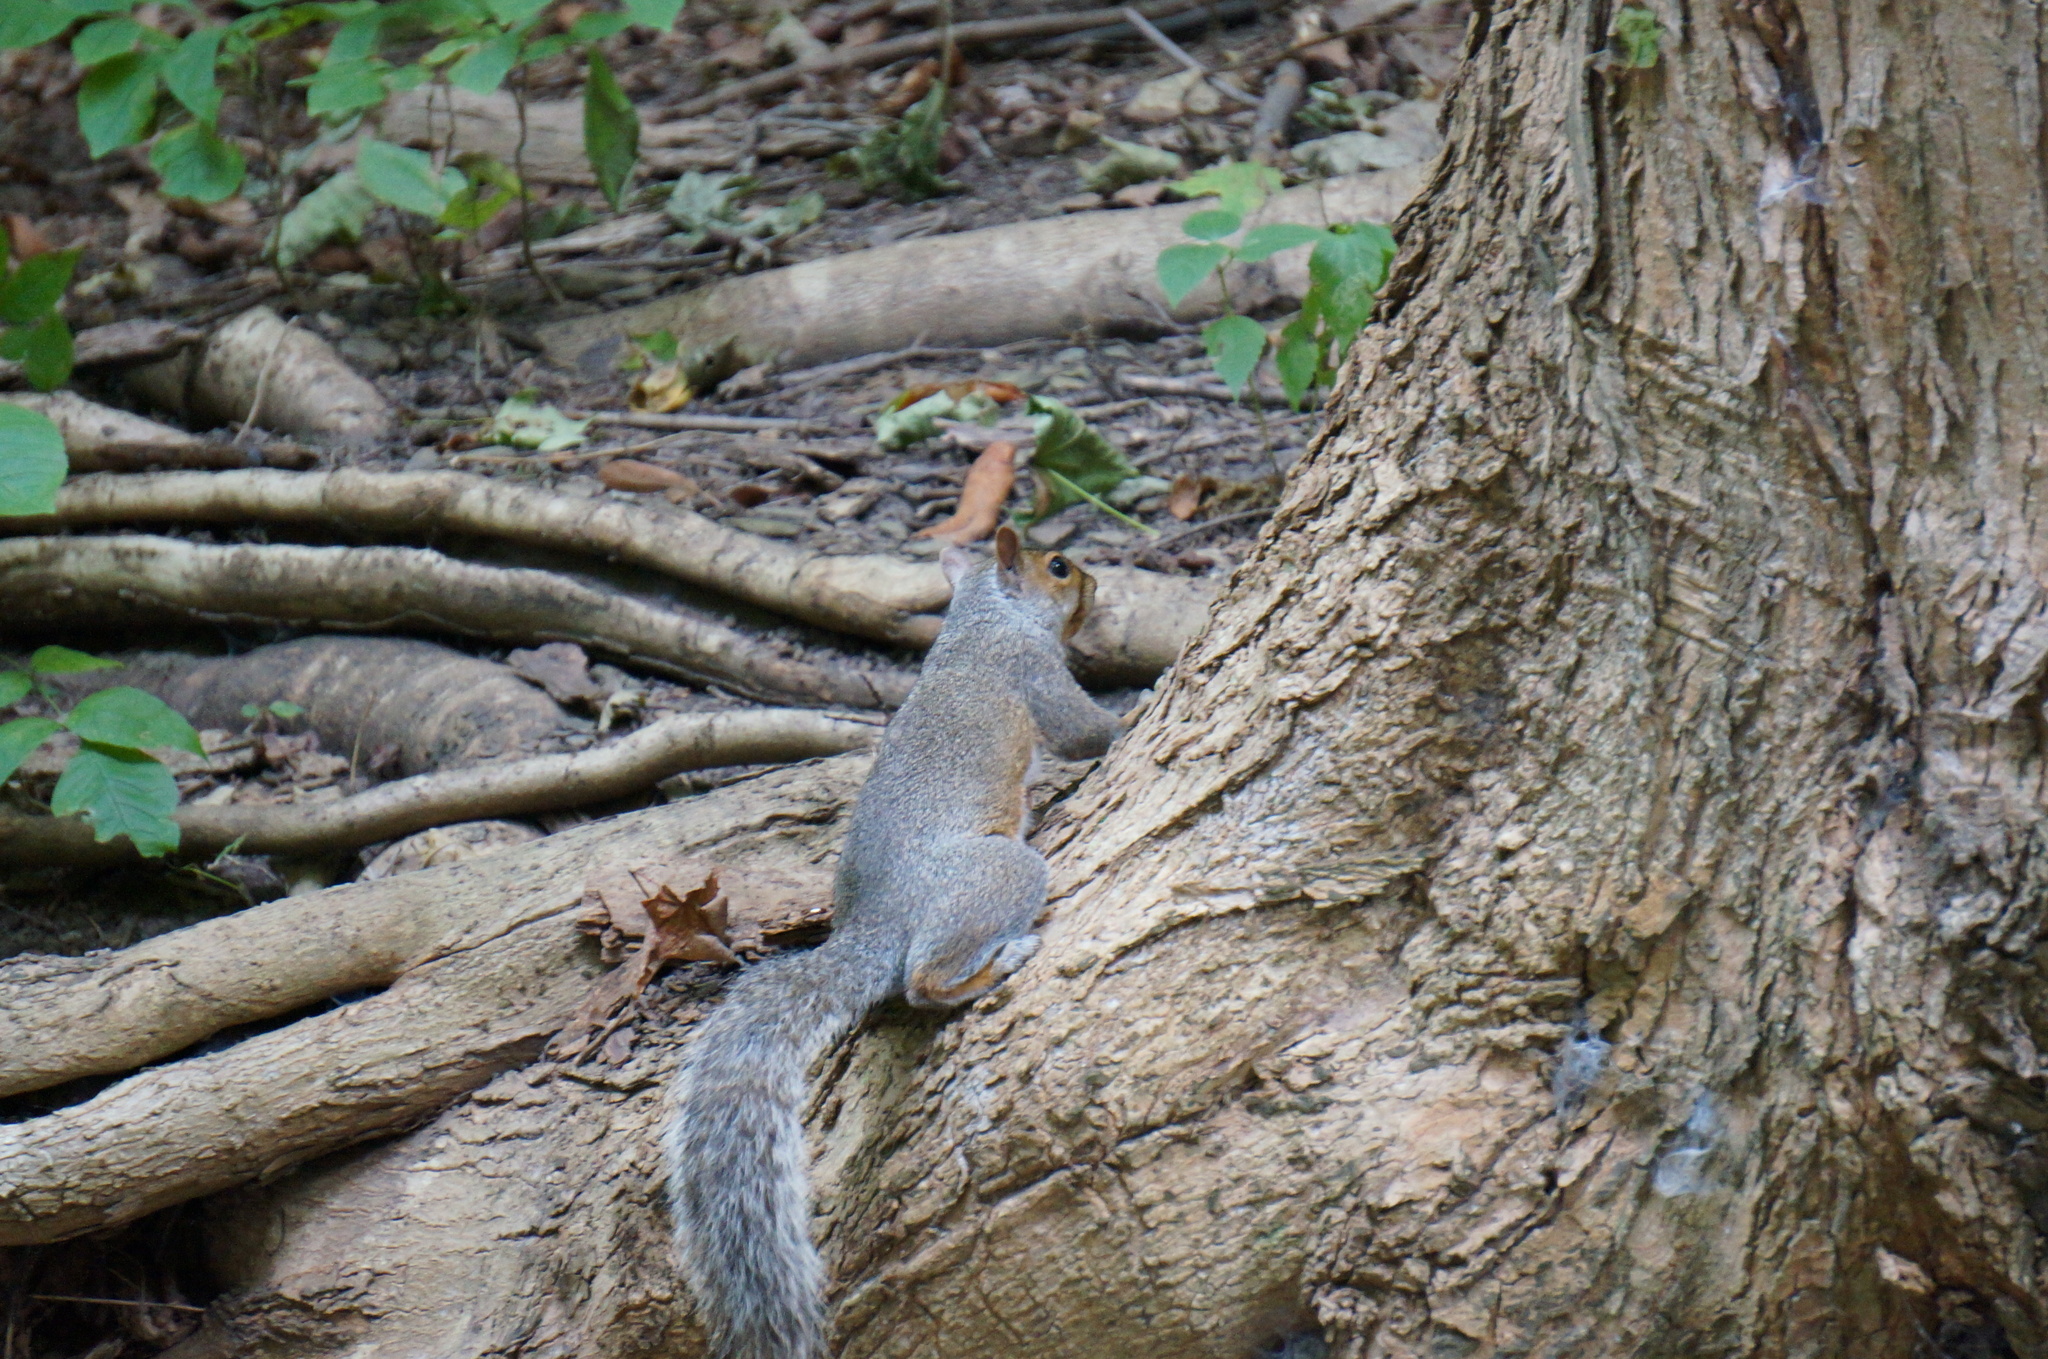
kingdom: Animalia
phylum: Chordata
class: Mammalia
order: Rodentia
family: Sciuridae
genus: Sciurus
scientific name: Sciurus carolinensis
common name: Eastern gray squirrel
